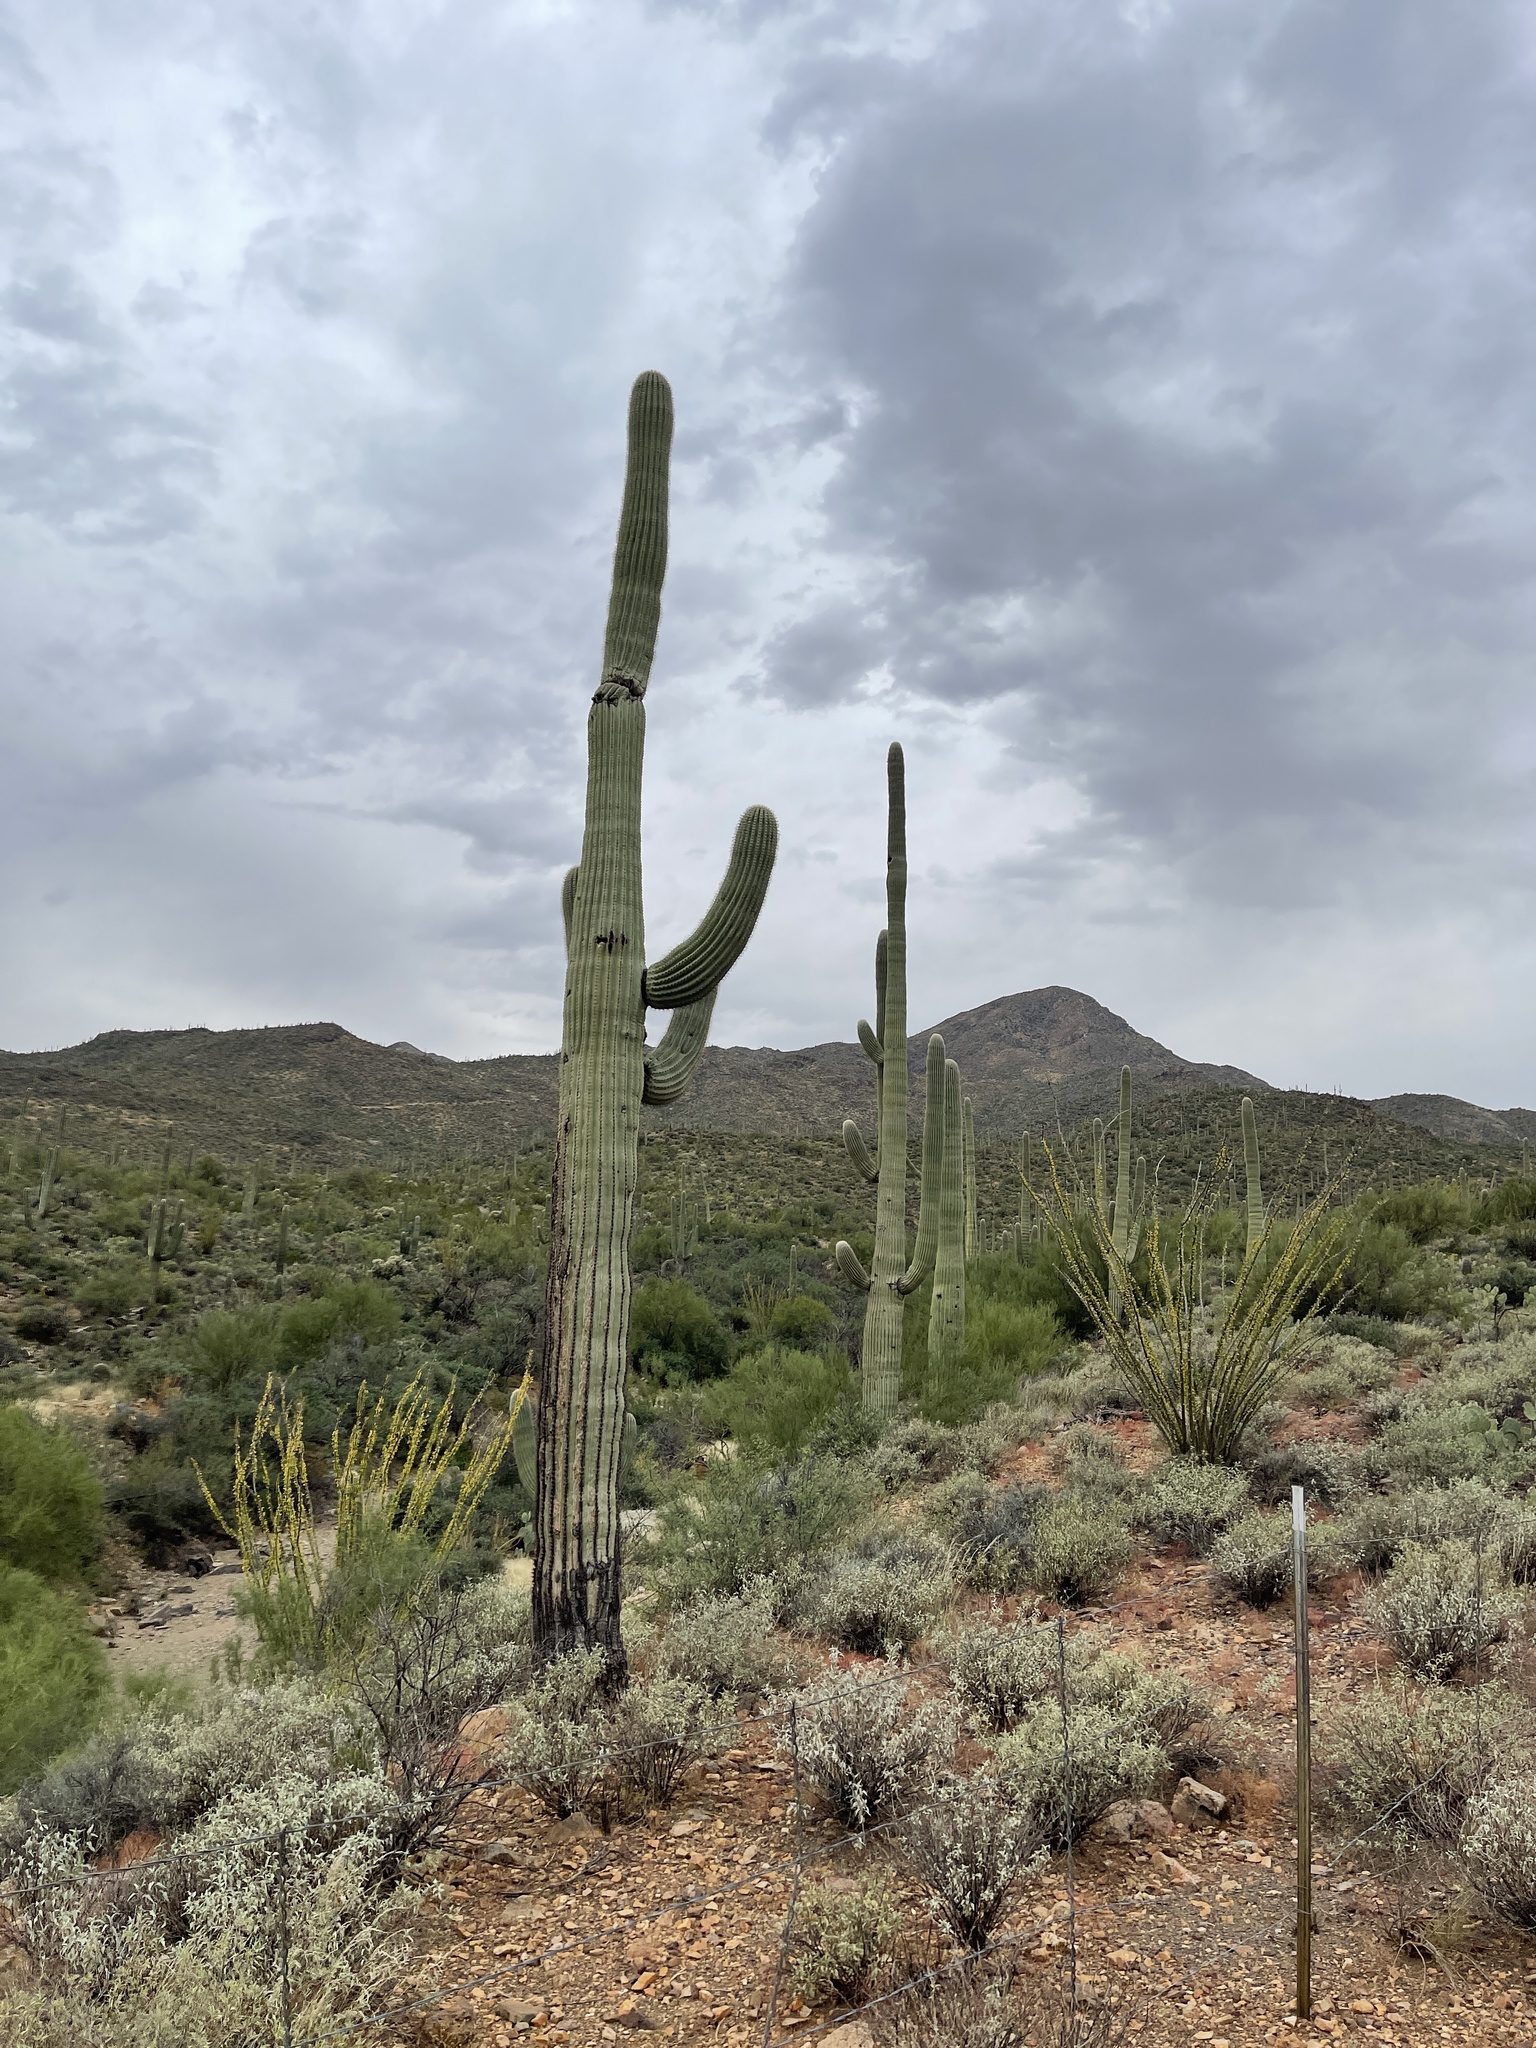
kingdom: Plantae
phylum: Tracheophyta
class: Magnoliopsida
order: Caryophyllales
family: Cactaceae
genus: Carnegiea
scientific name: Carnegiea gigantea
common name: Saguaro
